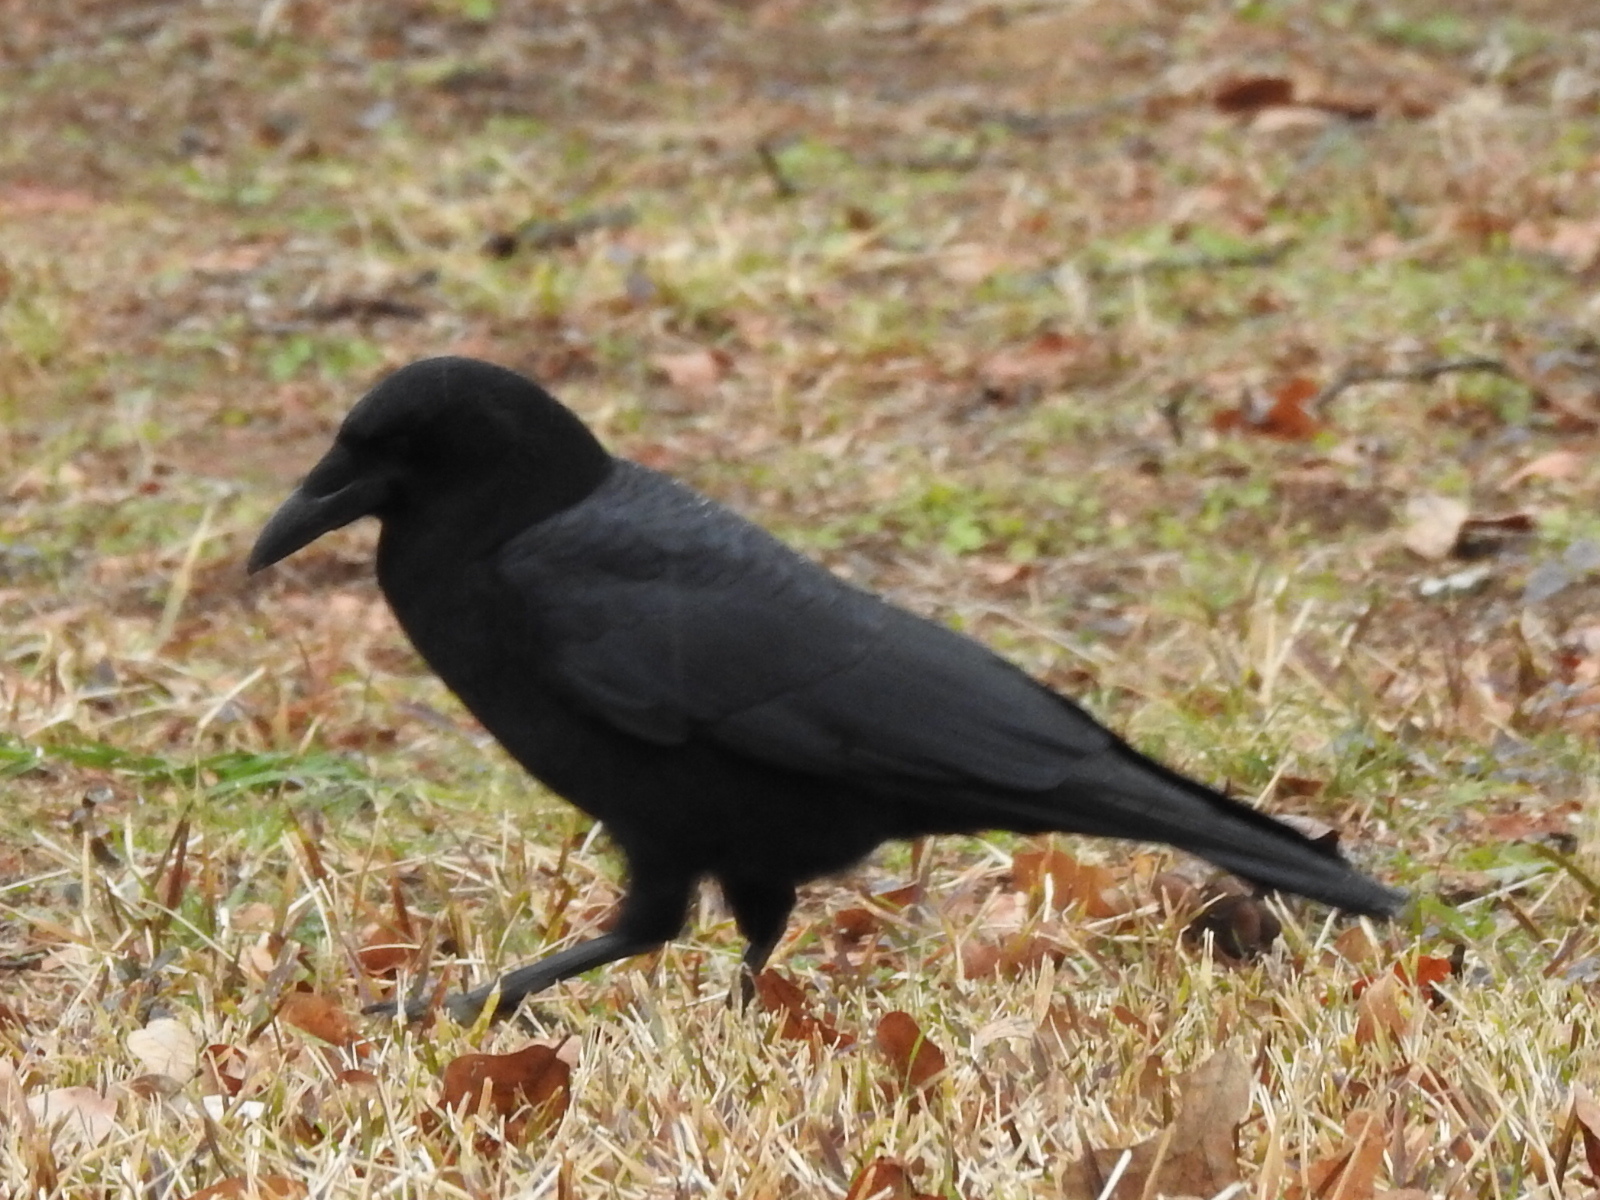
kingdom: Animalia
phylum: Chordata
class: Aves
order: Passeriformes
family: Corvidae
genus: Corvus
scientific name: Corvus brachyrhynchos
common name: American crow
